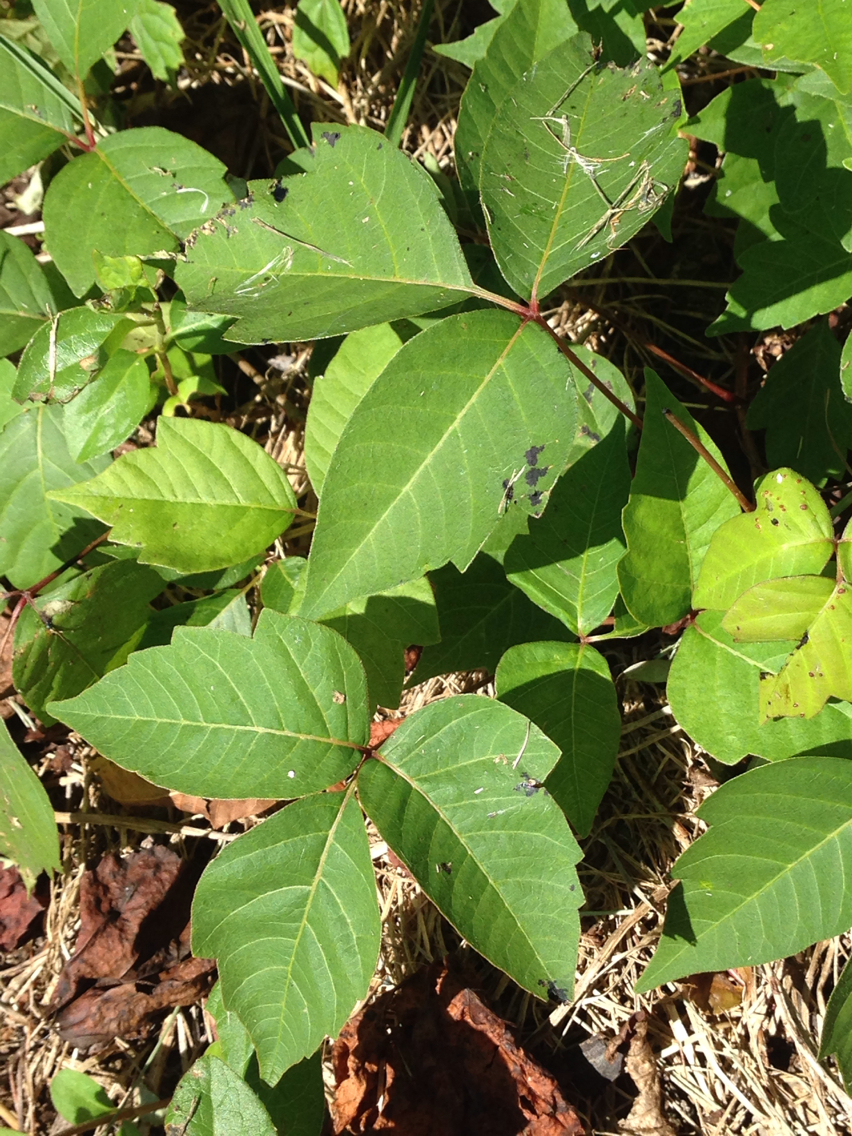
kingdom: Plantae
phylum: Tracheophyta
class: Magnoliopsida
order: Sapindales
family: Anacardiaceae
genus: Toxicodendron
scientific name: Toxicodendron radicans
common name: Poison ivy
